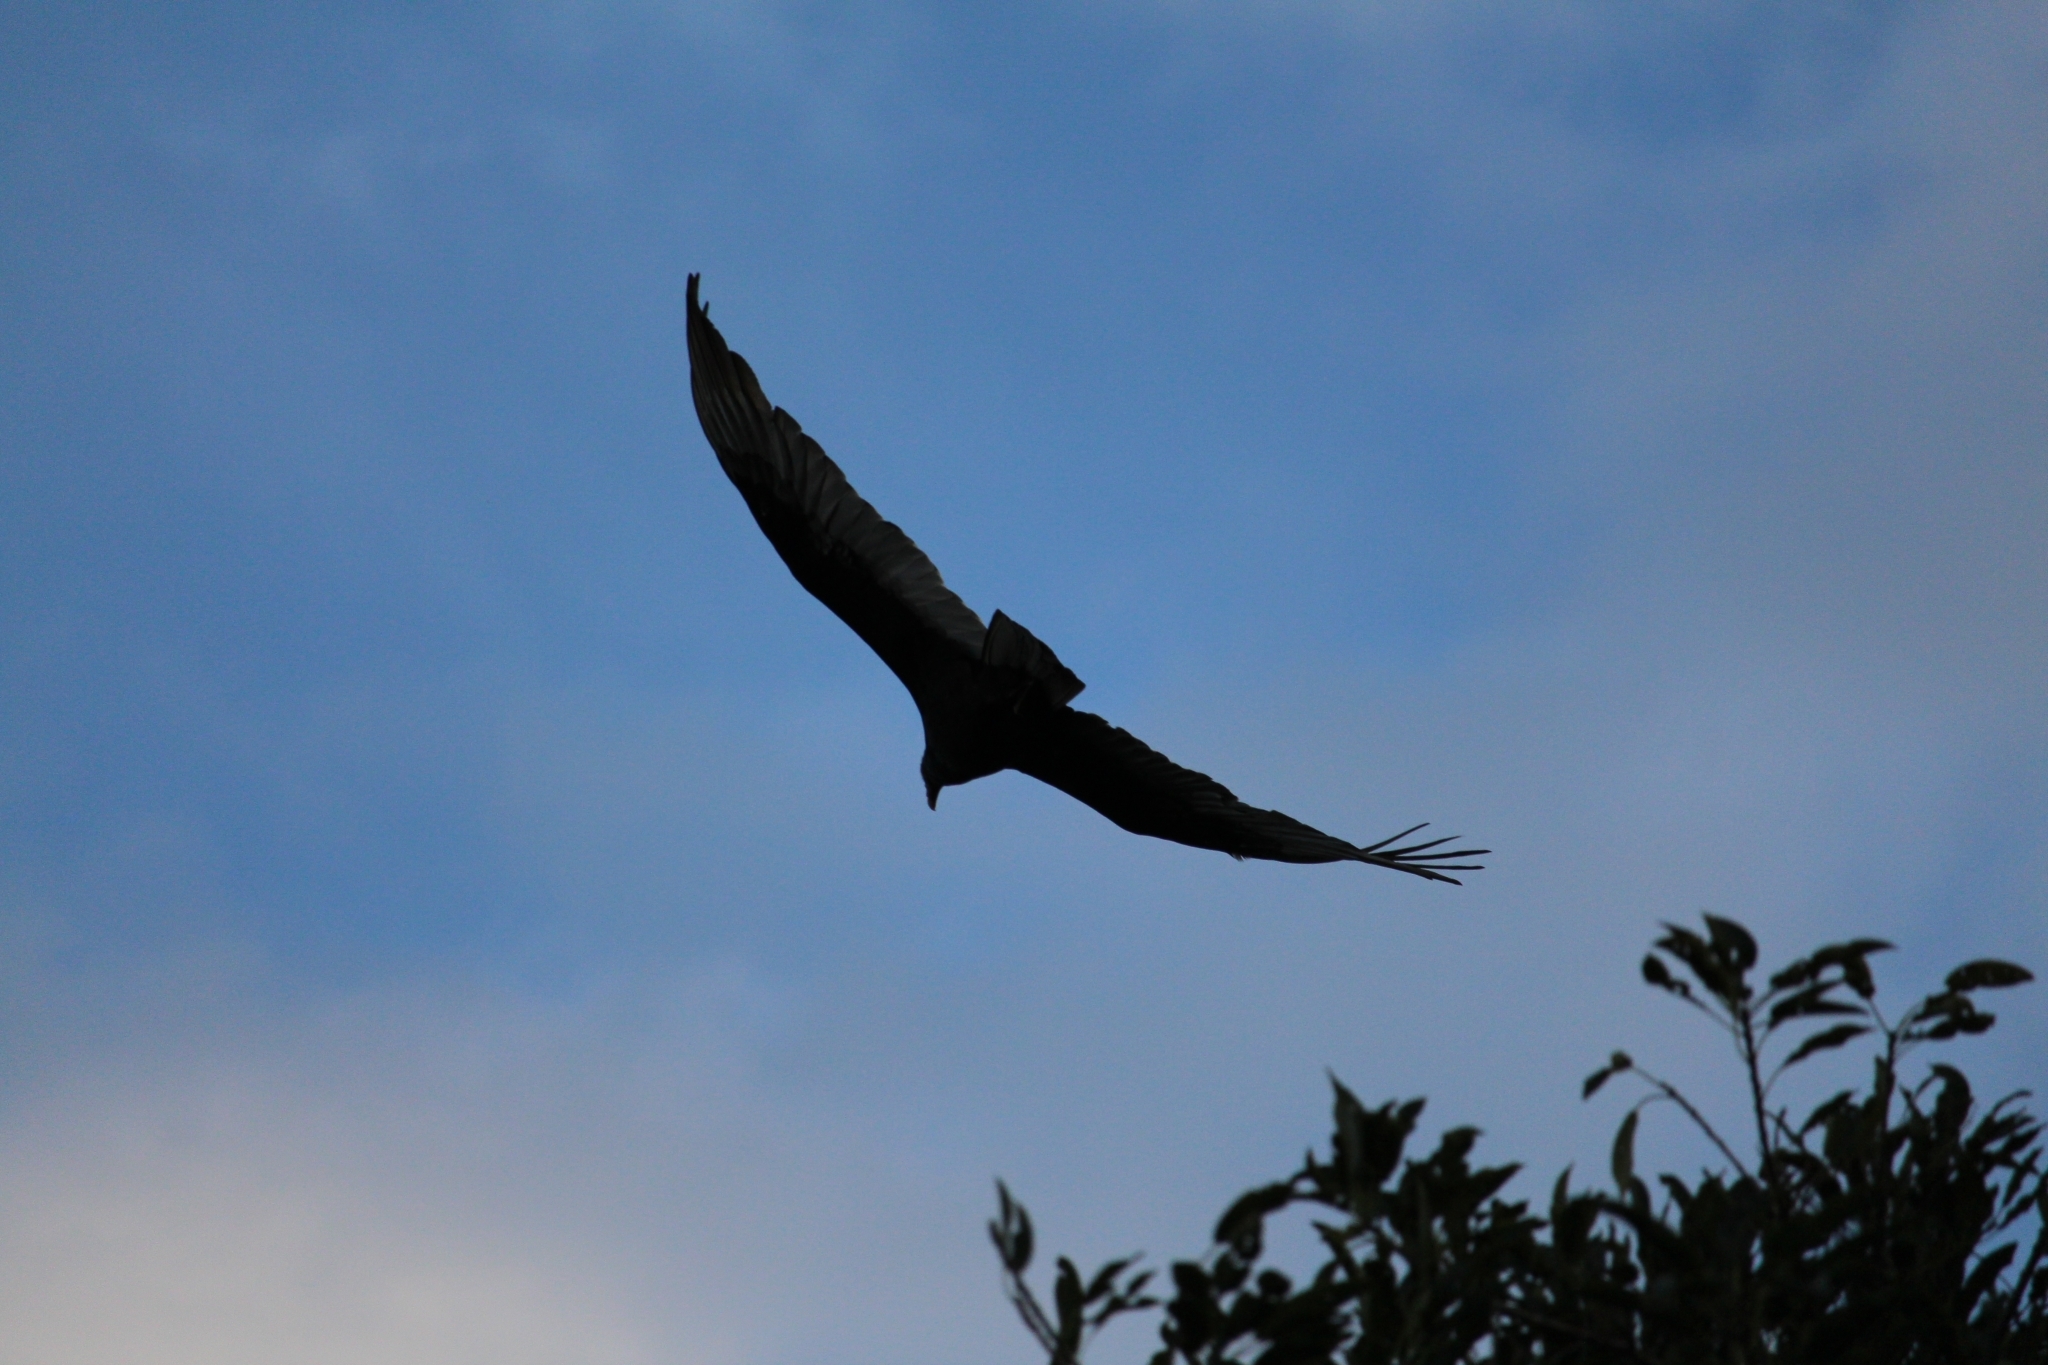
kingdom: Animalia
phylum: Chordata
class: Aves
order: Accipitriformes
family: Cathartidae
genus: Cathartes
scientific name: Cathartes aura
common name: Turkey vulture
